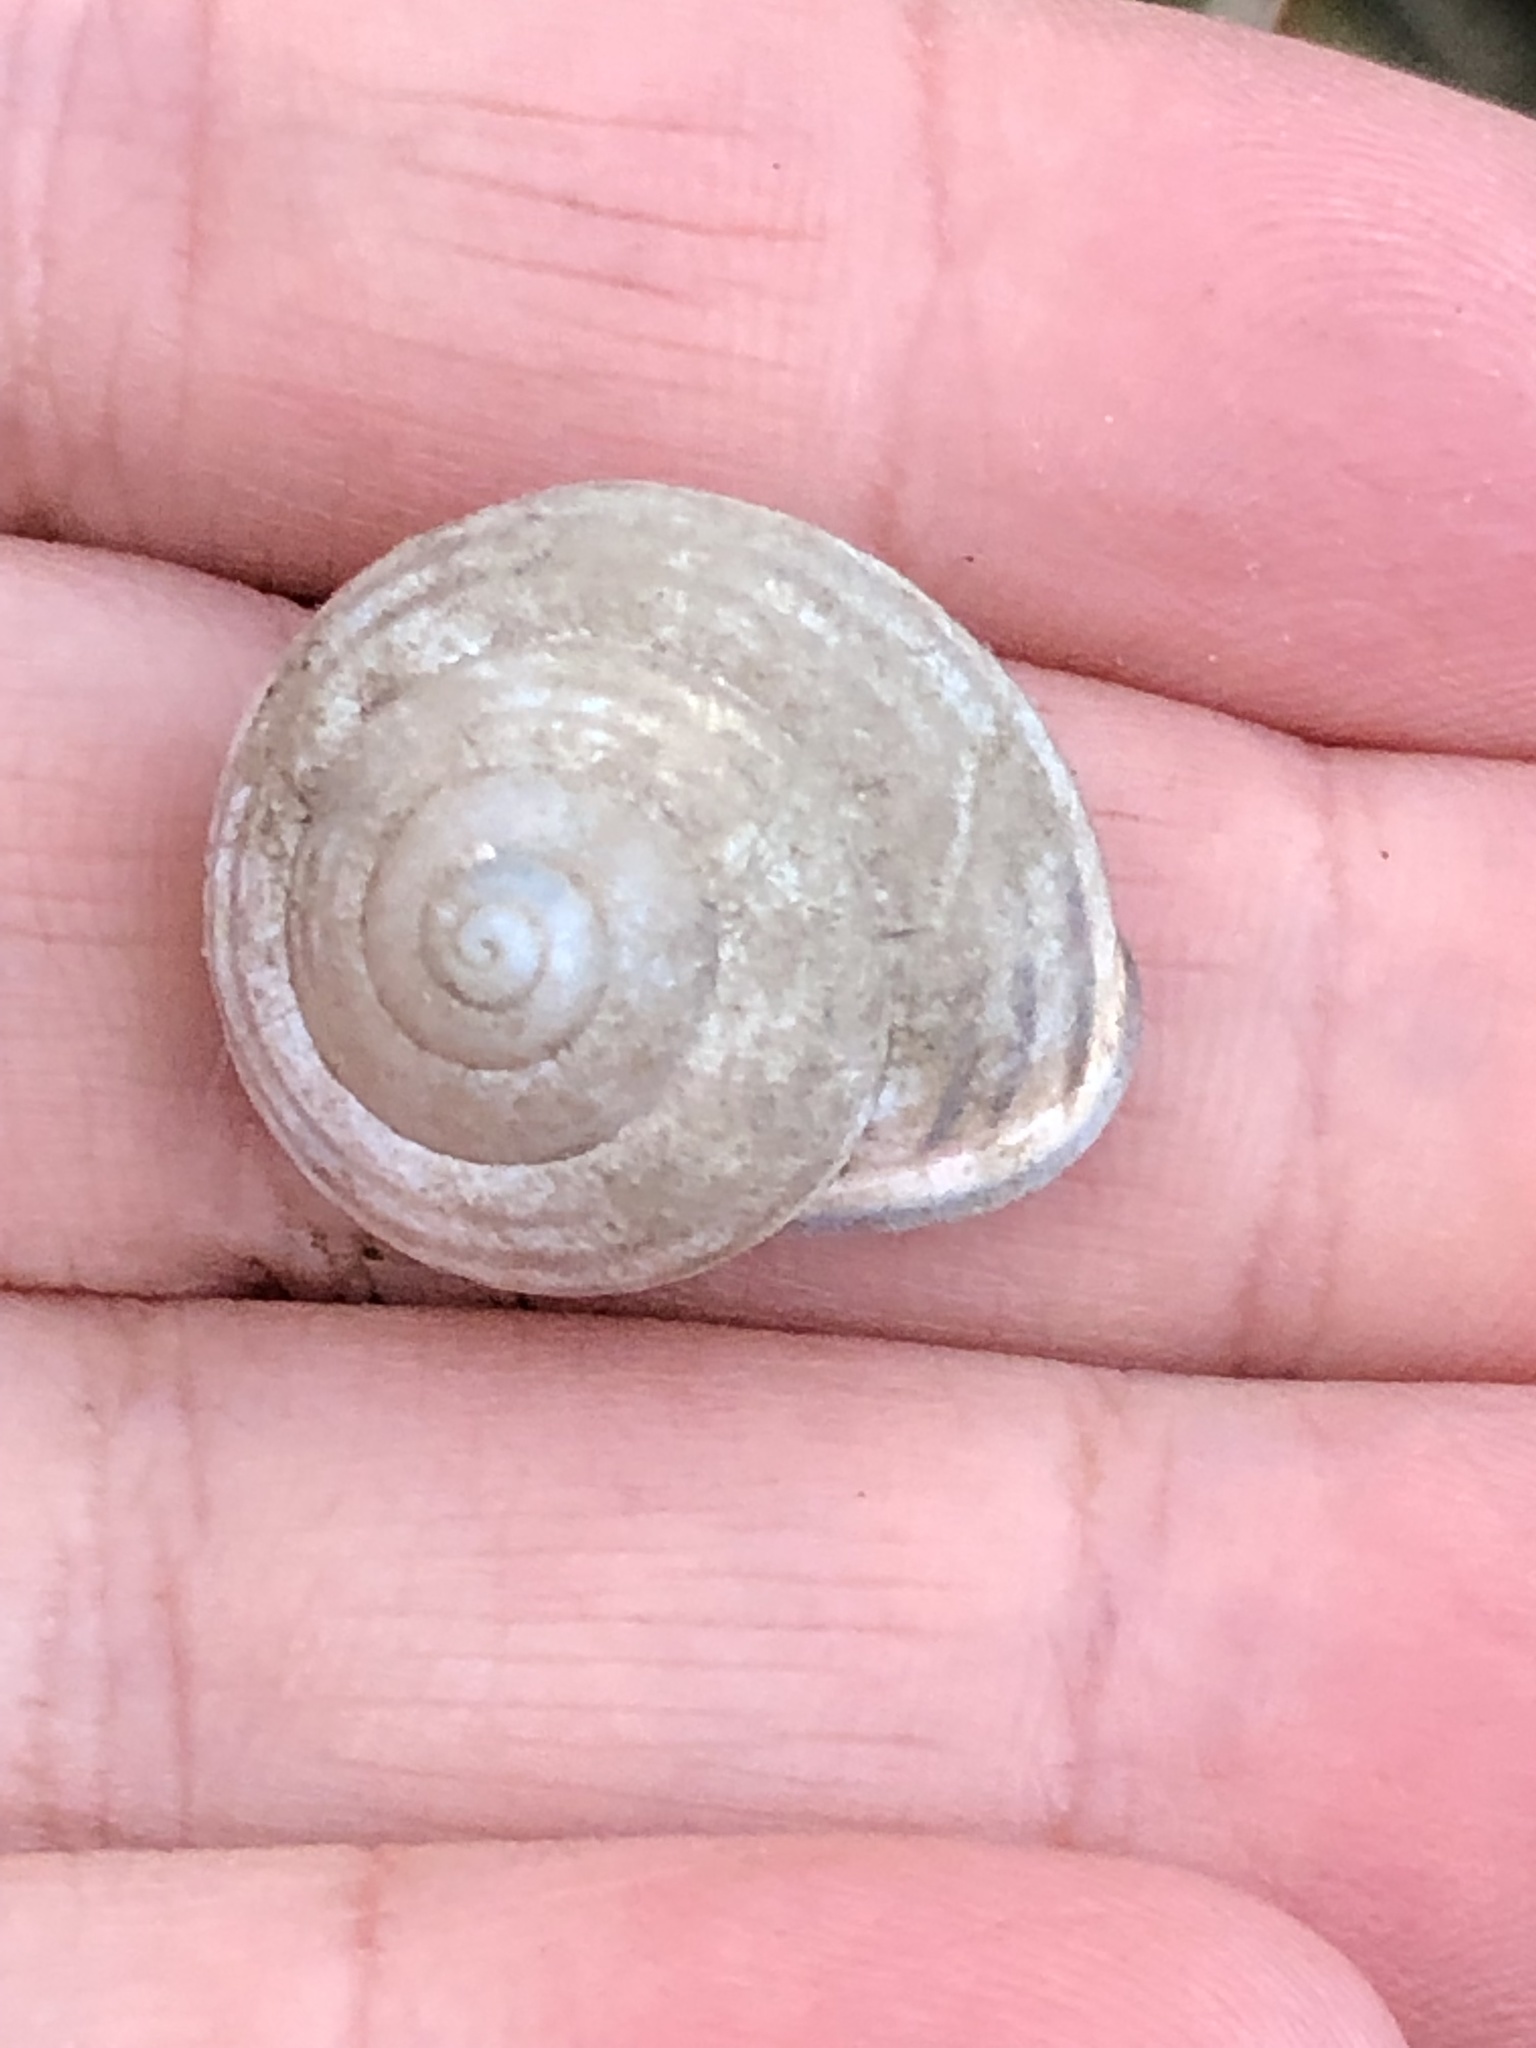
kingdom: Animalia
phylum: Mollusca
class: Gastropoda
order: Stylommatophora
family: Helicidae
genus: Cepaea
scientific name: Cepaea nemoralis
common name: Grovesnail
